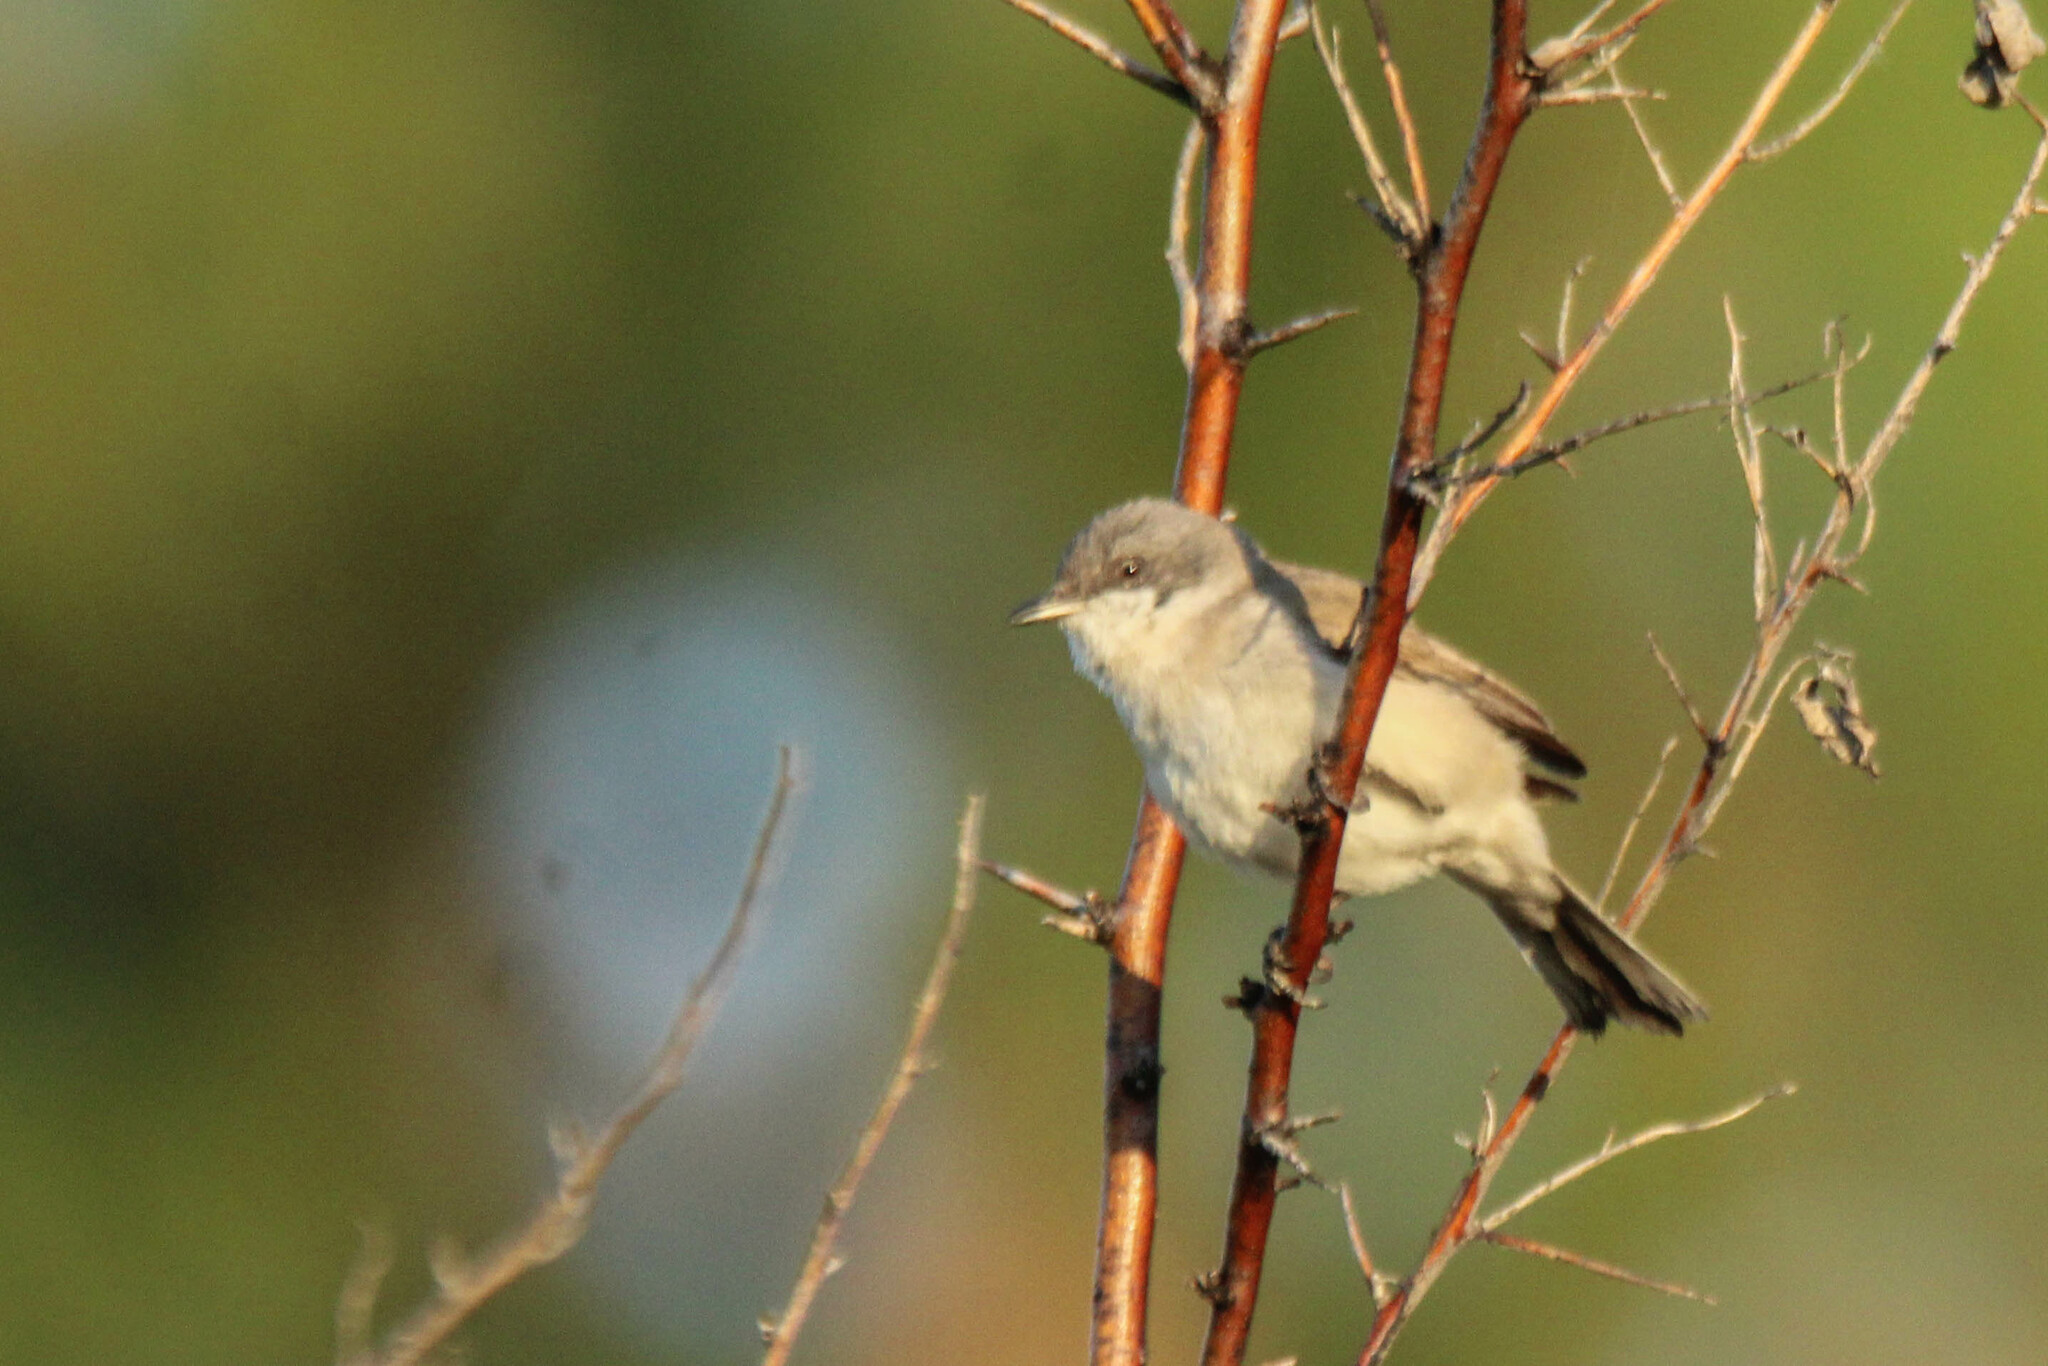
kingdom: Animalia
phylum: Chordata
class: Aves
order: Passeriformes
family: Sylviidae
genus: Sylvia
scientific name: Sylvia curruca
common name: Lesser whitethroat
